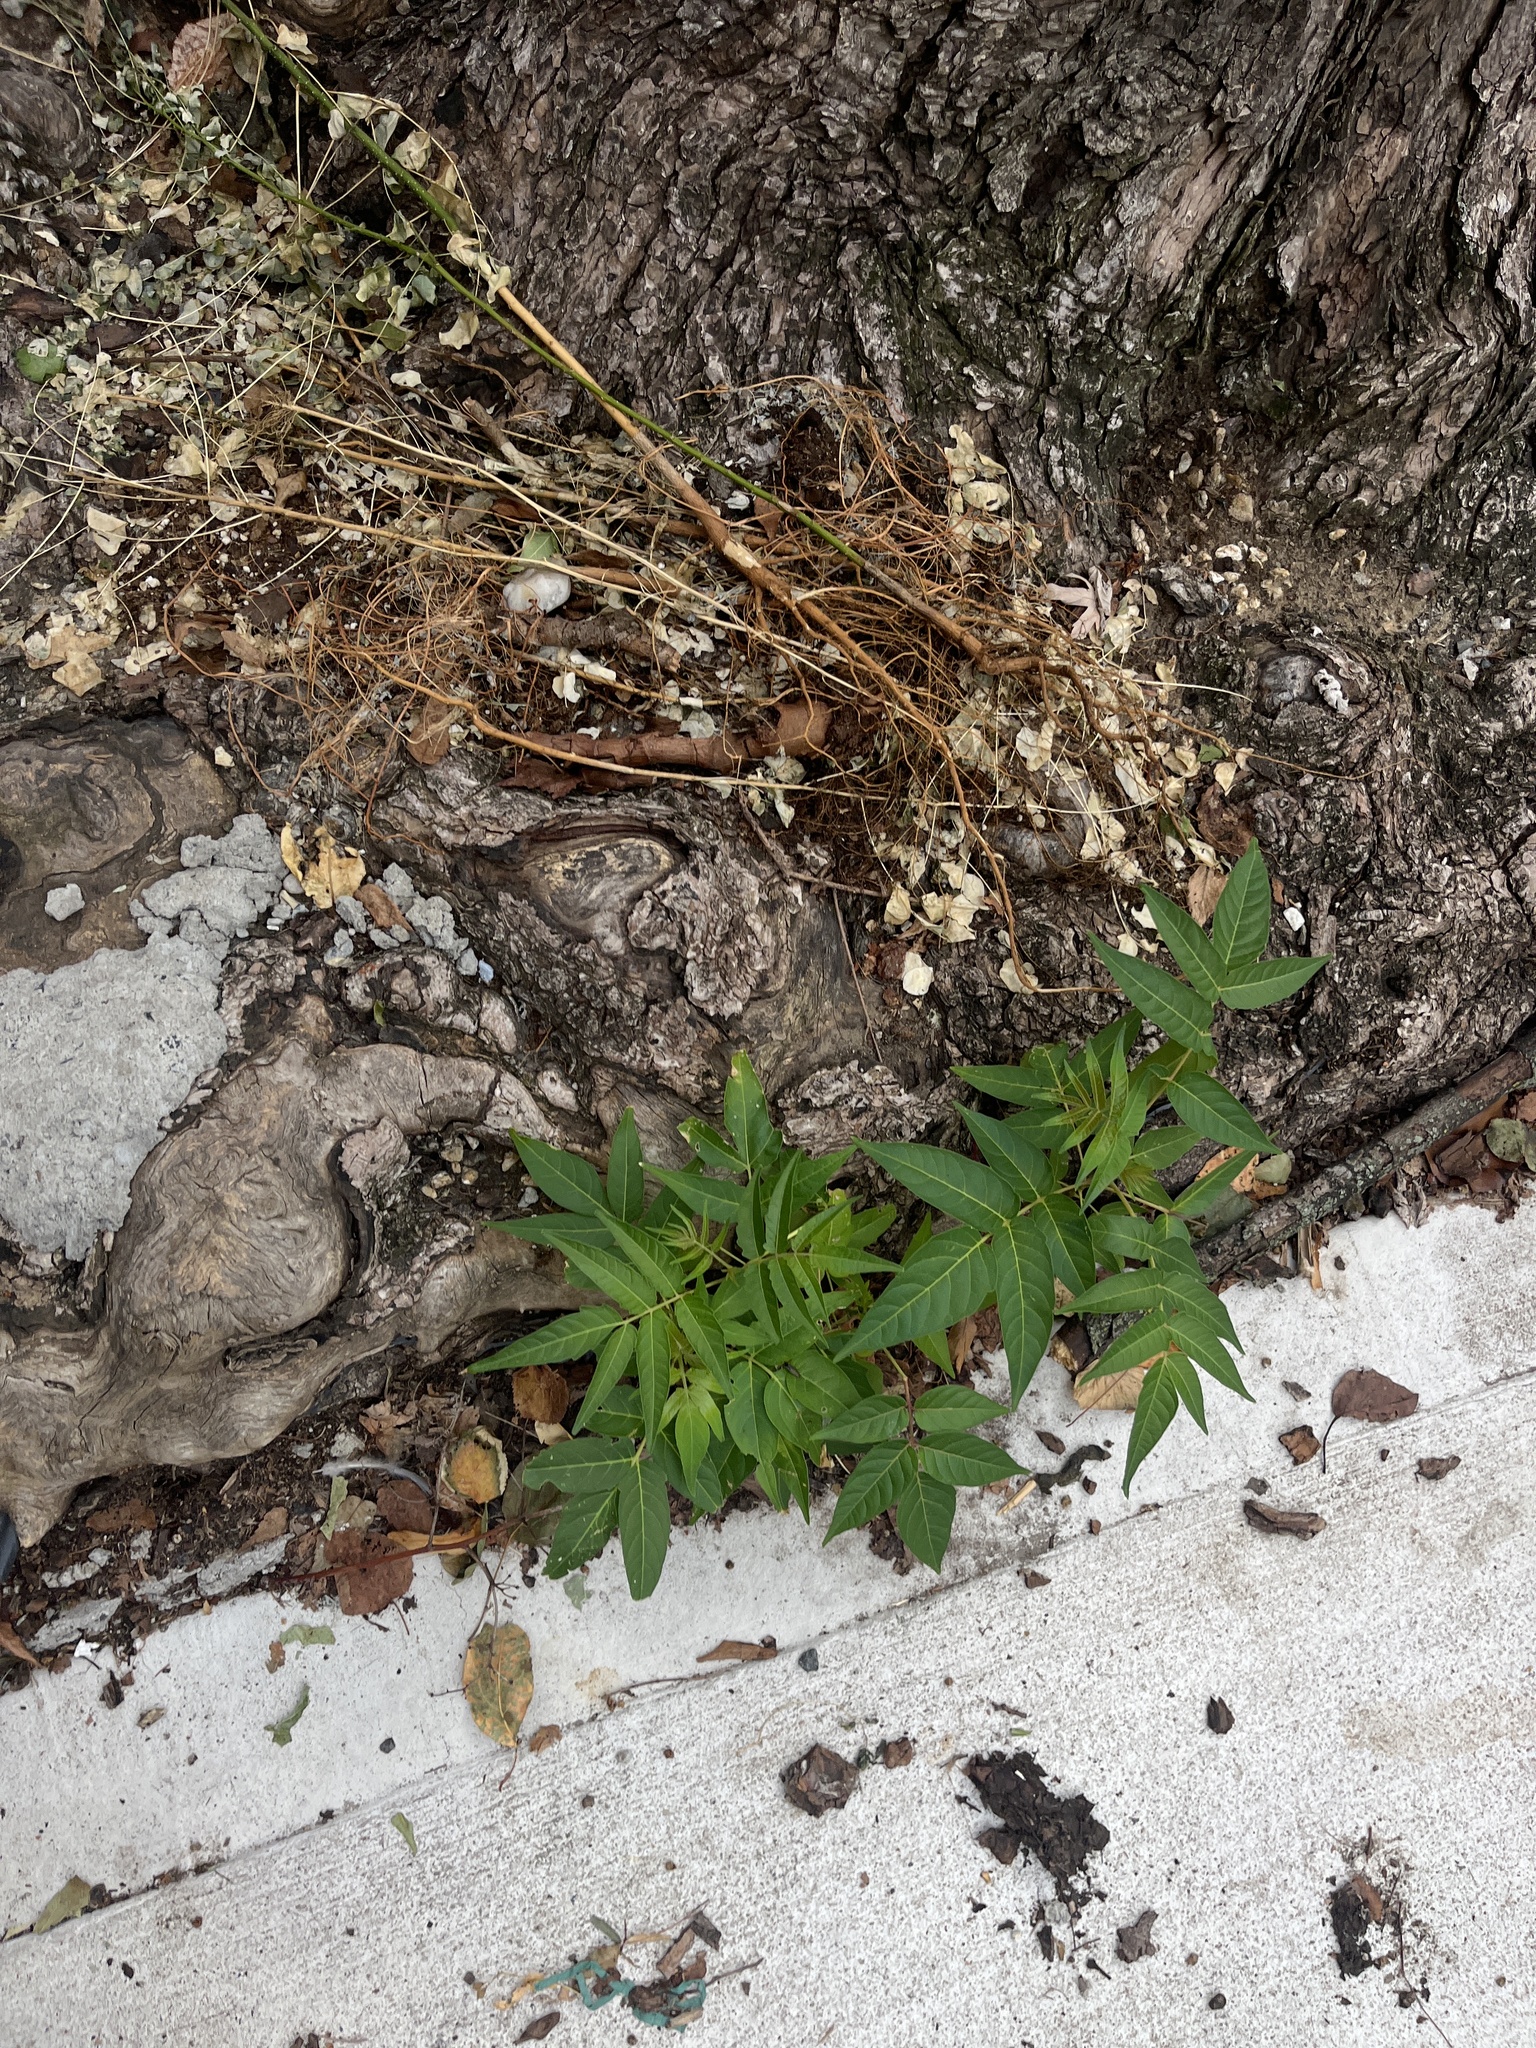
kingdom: Plantae
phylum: Tracheophyta
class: Magnoliopsida
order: Sapindales
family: Simaroubaceae
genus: Ailanthus
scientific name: Ailanthus altissima
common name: Tree-of-heaven
